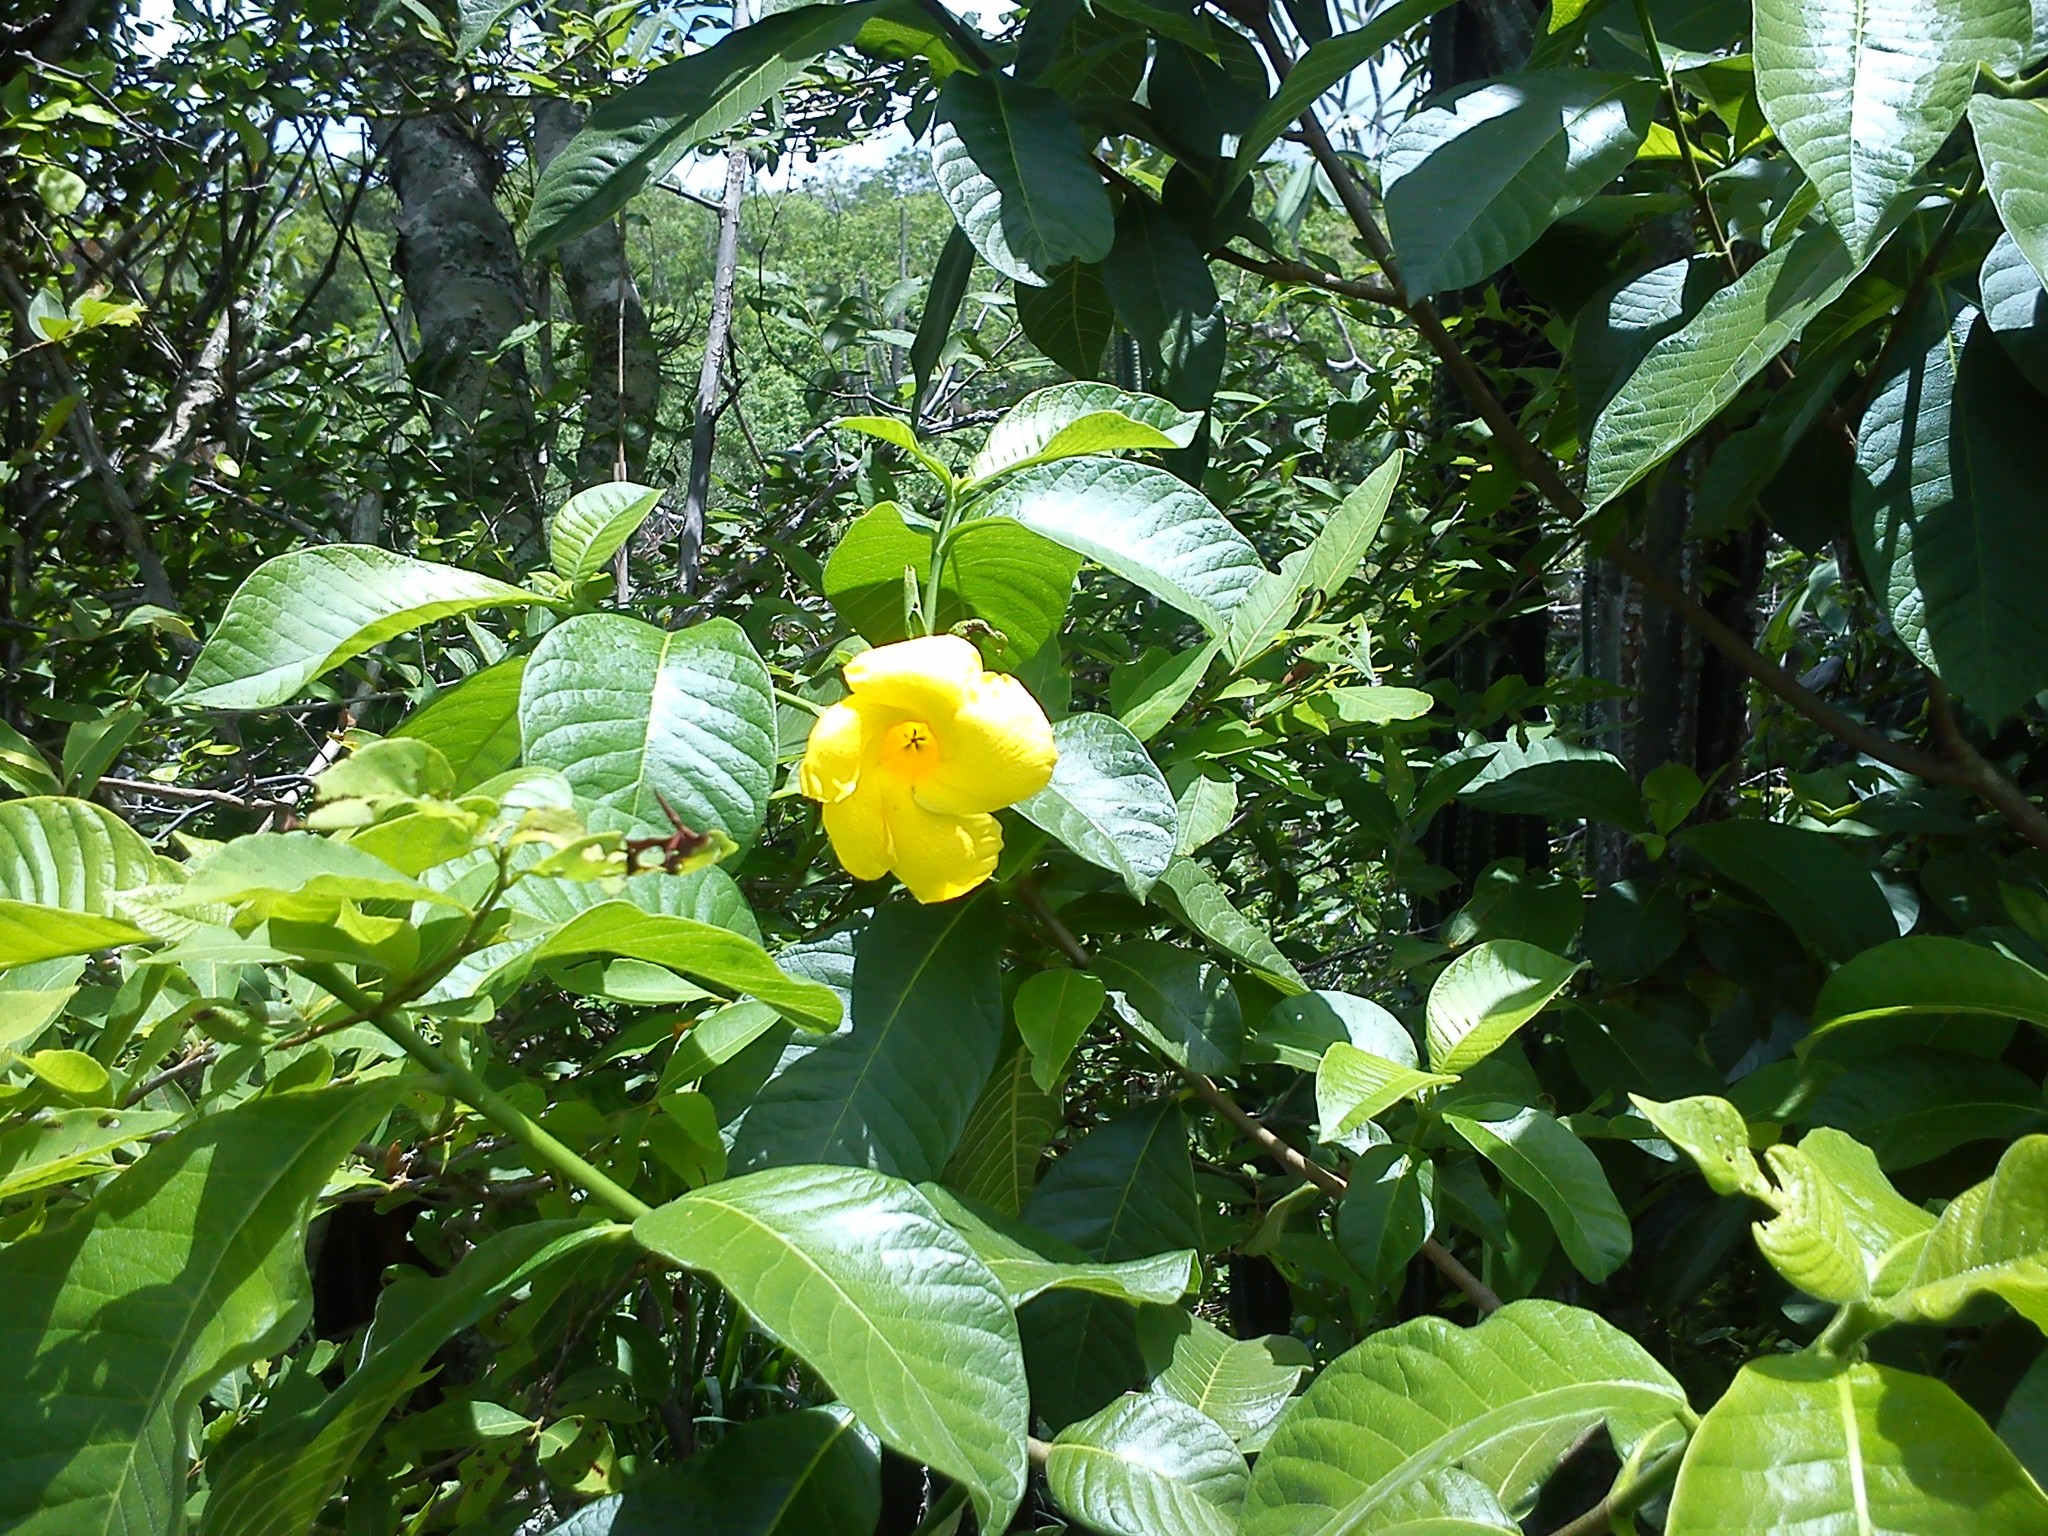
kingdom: Plantae
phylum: Tracheophyta
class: Magnoliopsida
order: Gentianales
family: Apocynaceae
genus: Tabernaemontana
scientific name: Tabernaemontana glabra
